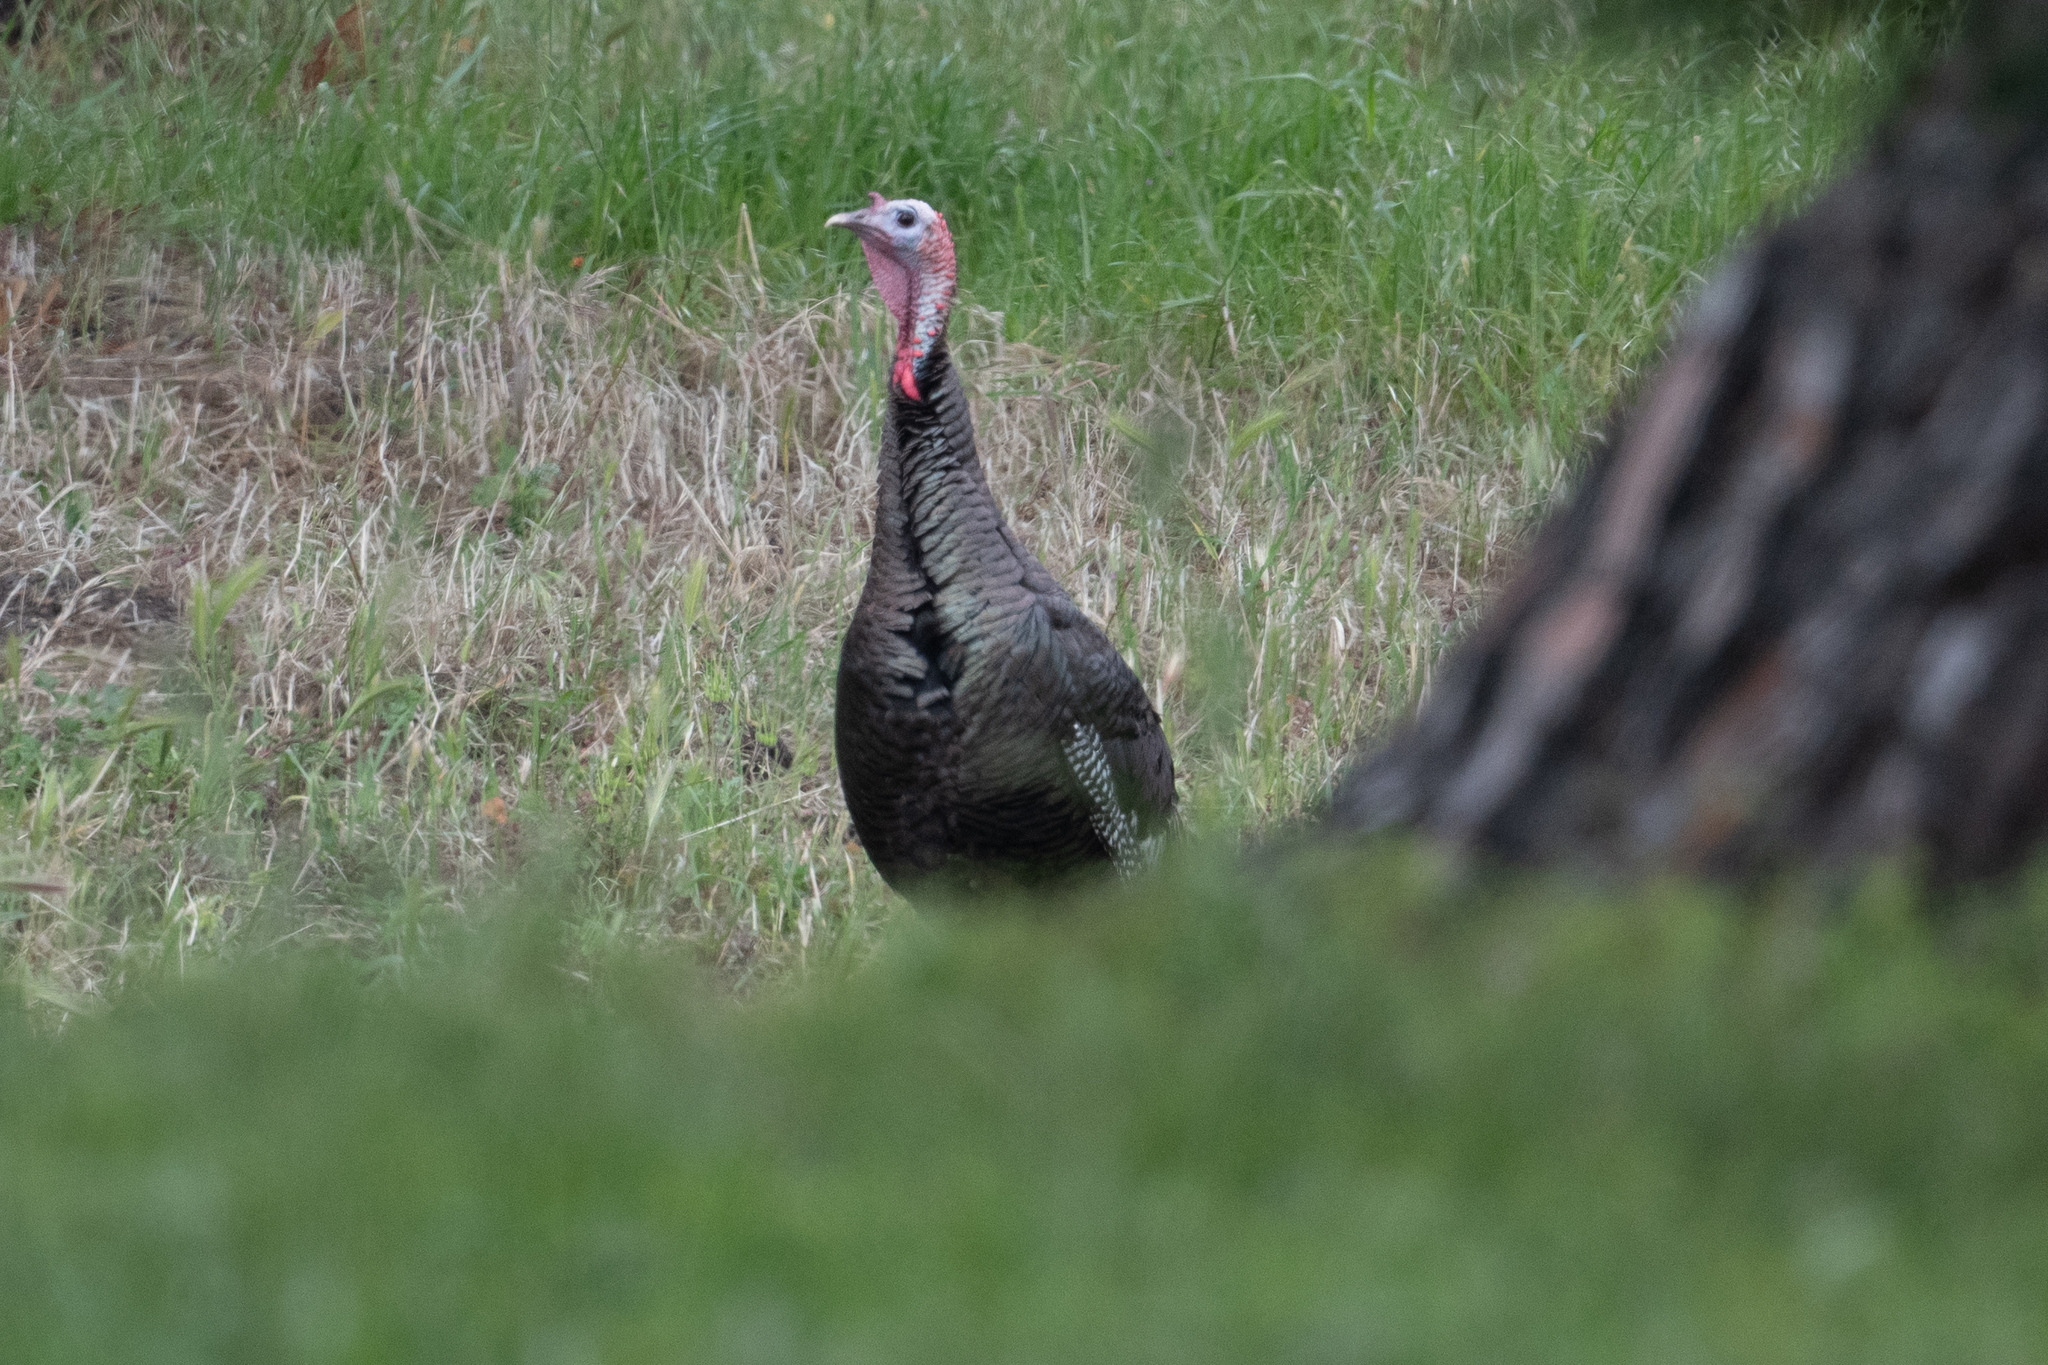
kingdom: Animalia
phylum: Chordata
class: Aves
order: Galliformes
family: Phasianidae
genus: Meleagris
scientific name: Meleagris gallopavo
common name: Wild turkey
